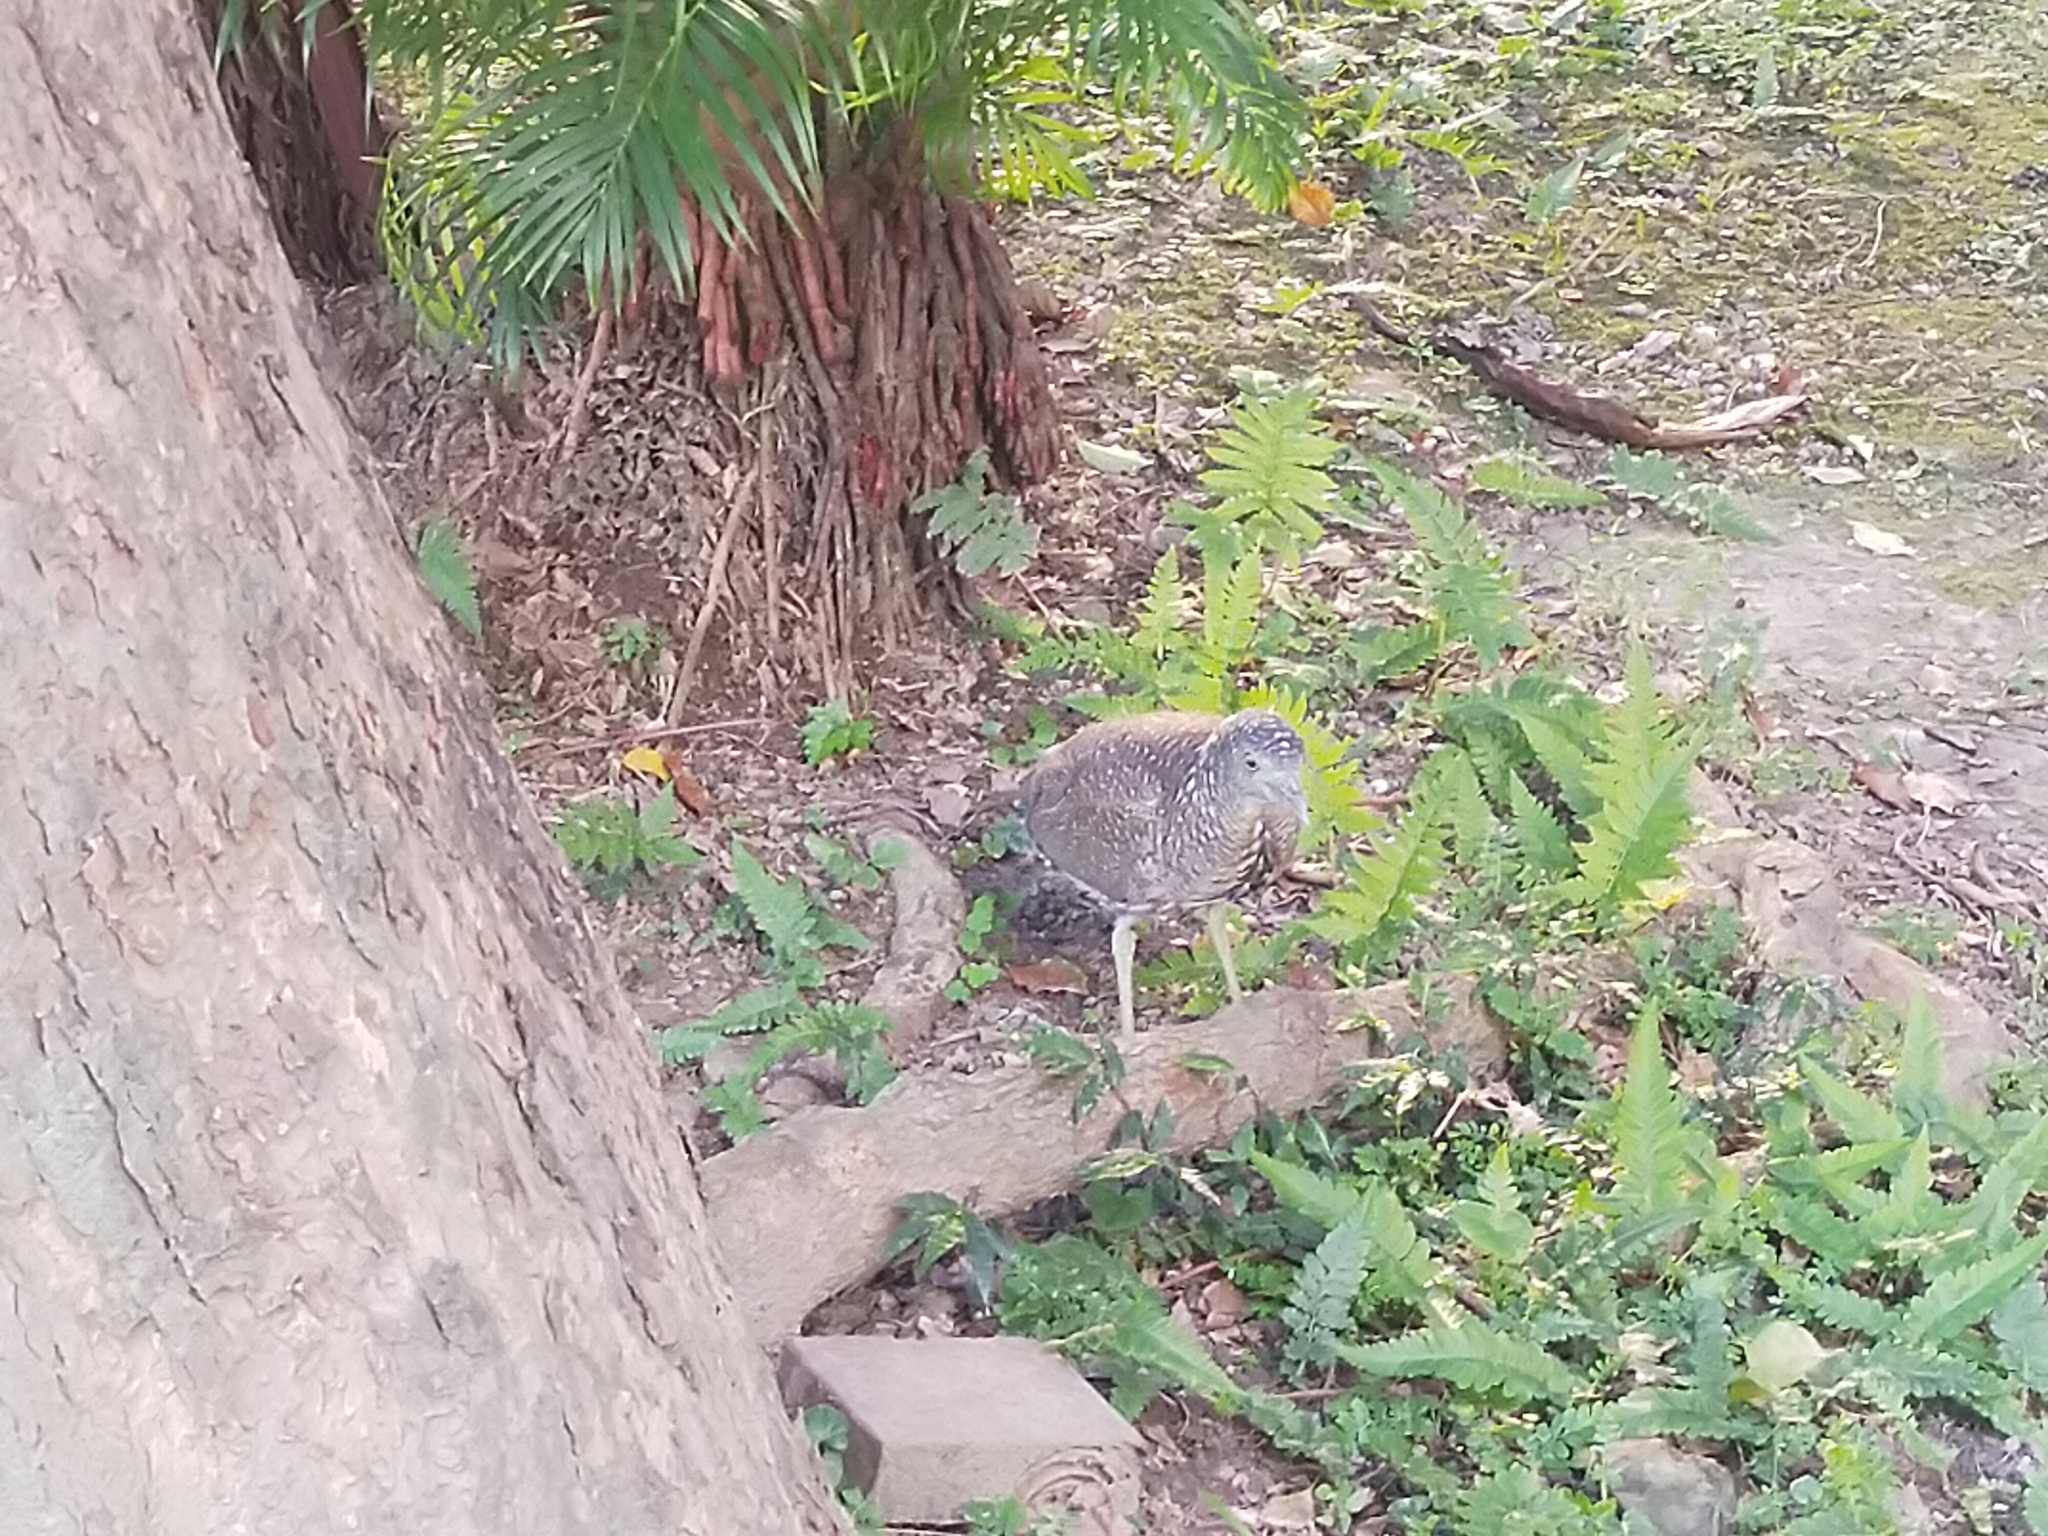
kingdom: Animalia
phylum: Chordata
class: Aves
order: Pelecaniformes
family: Ardeidae
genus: Gorsachius
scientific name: Gorsachius melanolophus
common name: Malayan night heron
